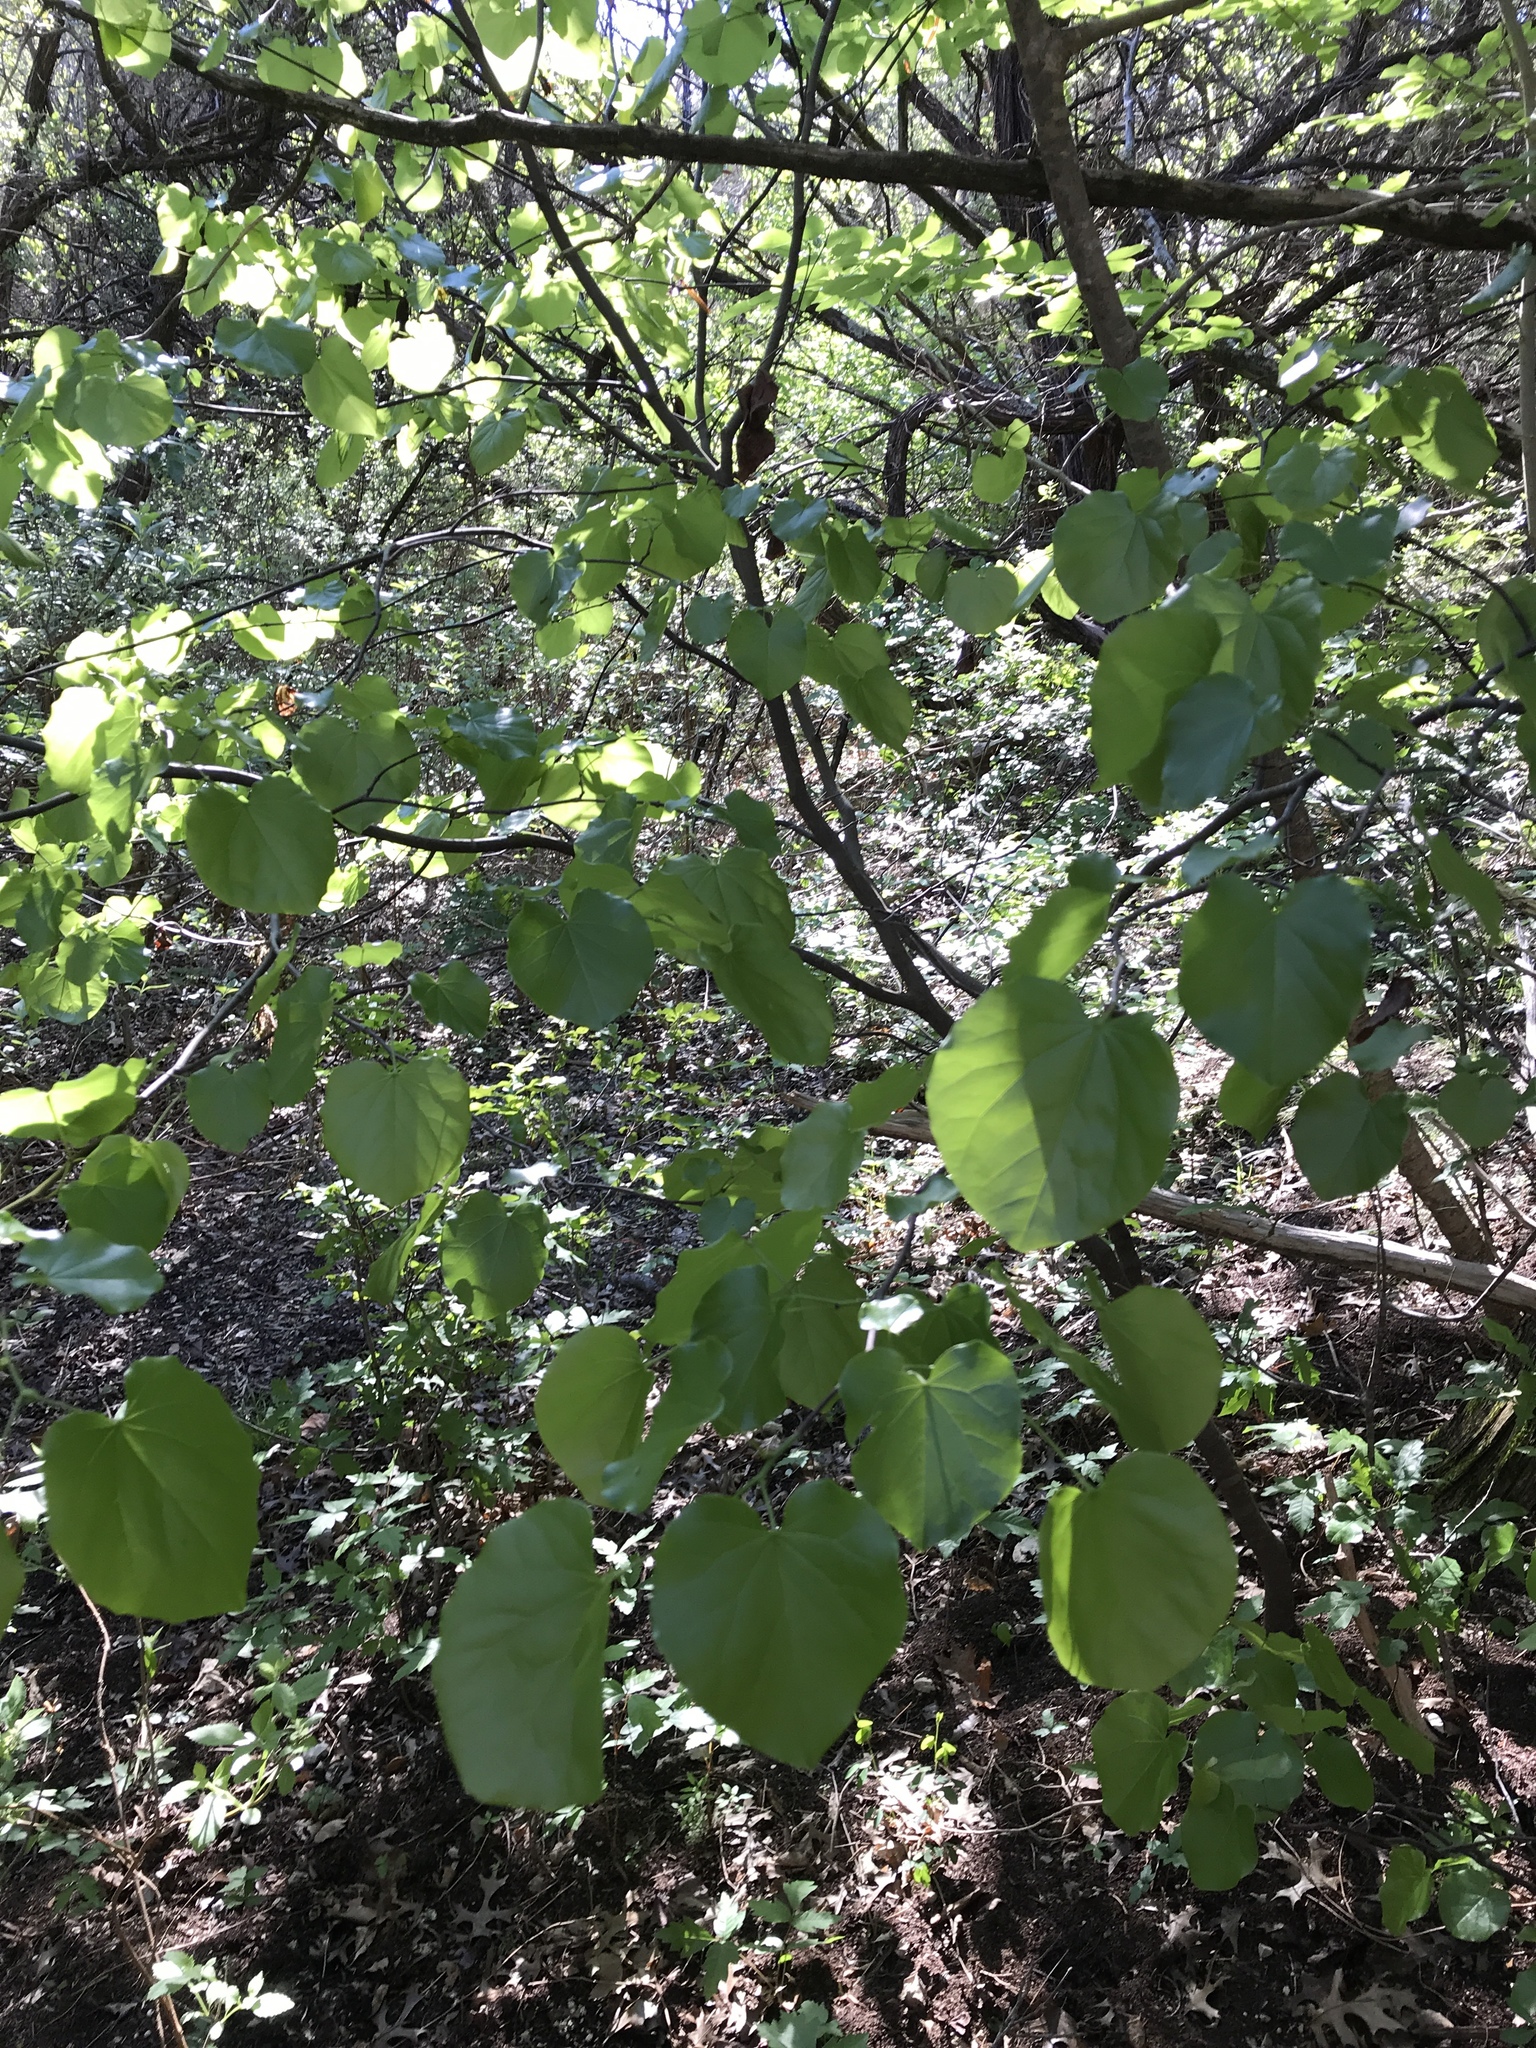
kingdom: Plantae
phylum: Tracheophyta
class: Magnoliopsida
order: Fabales
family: Fabaceae
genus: Cercis
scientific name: Cercis canadensis
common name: Eastern redbud
